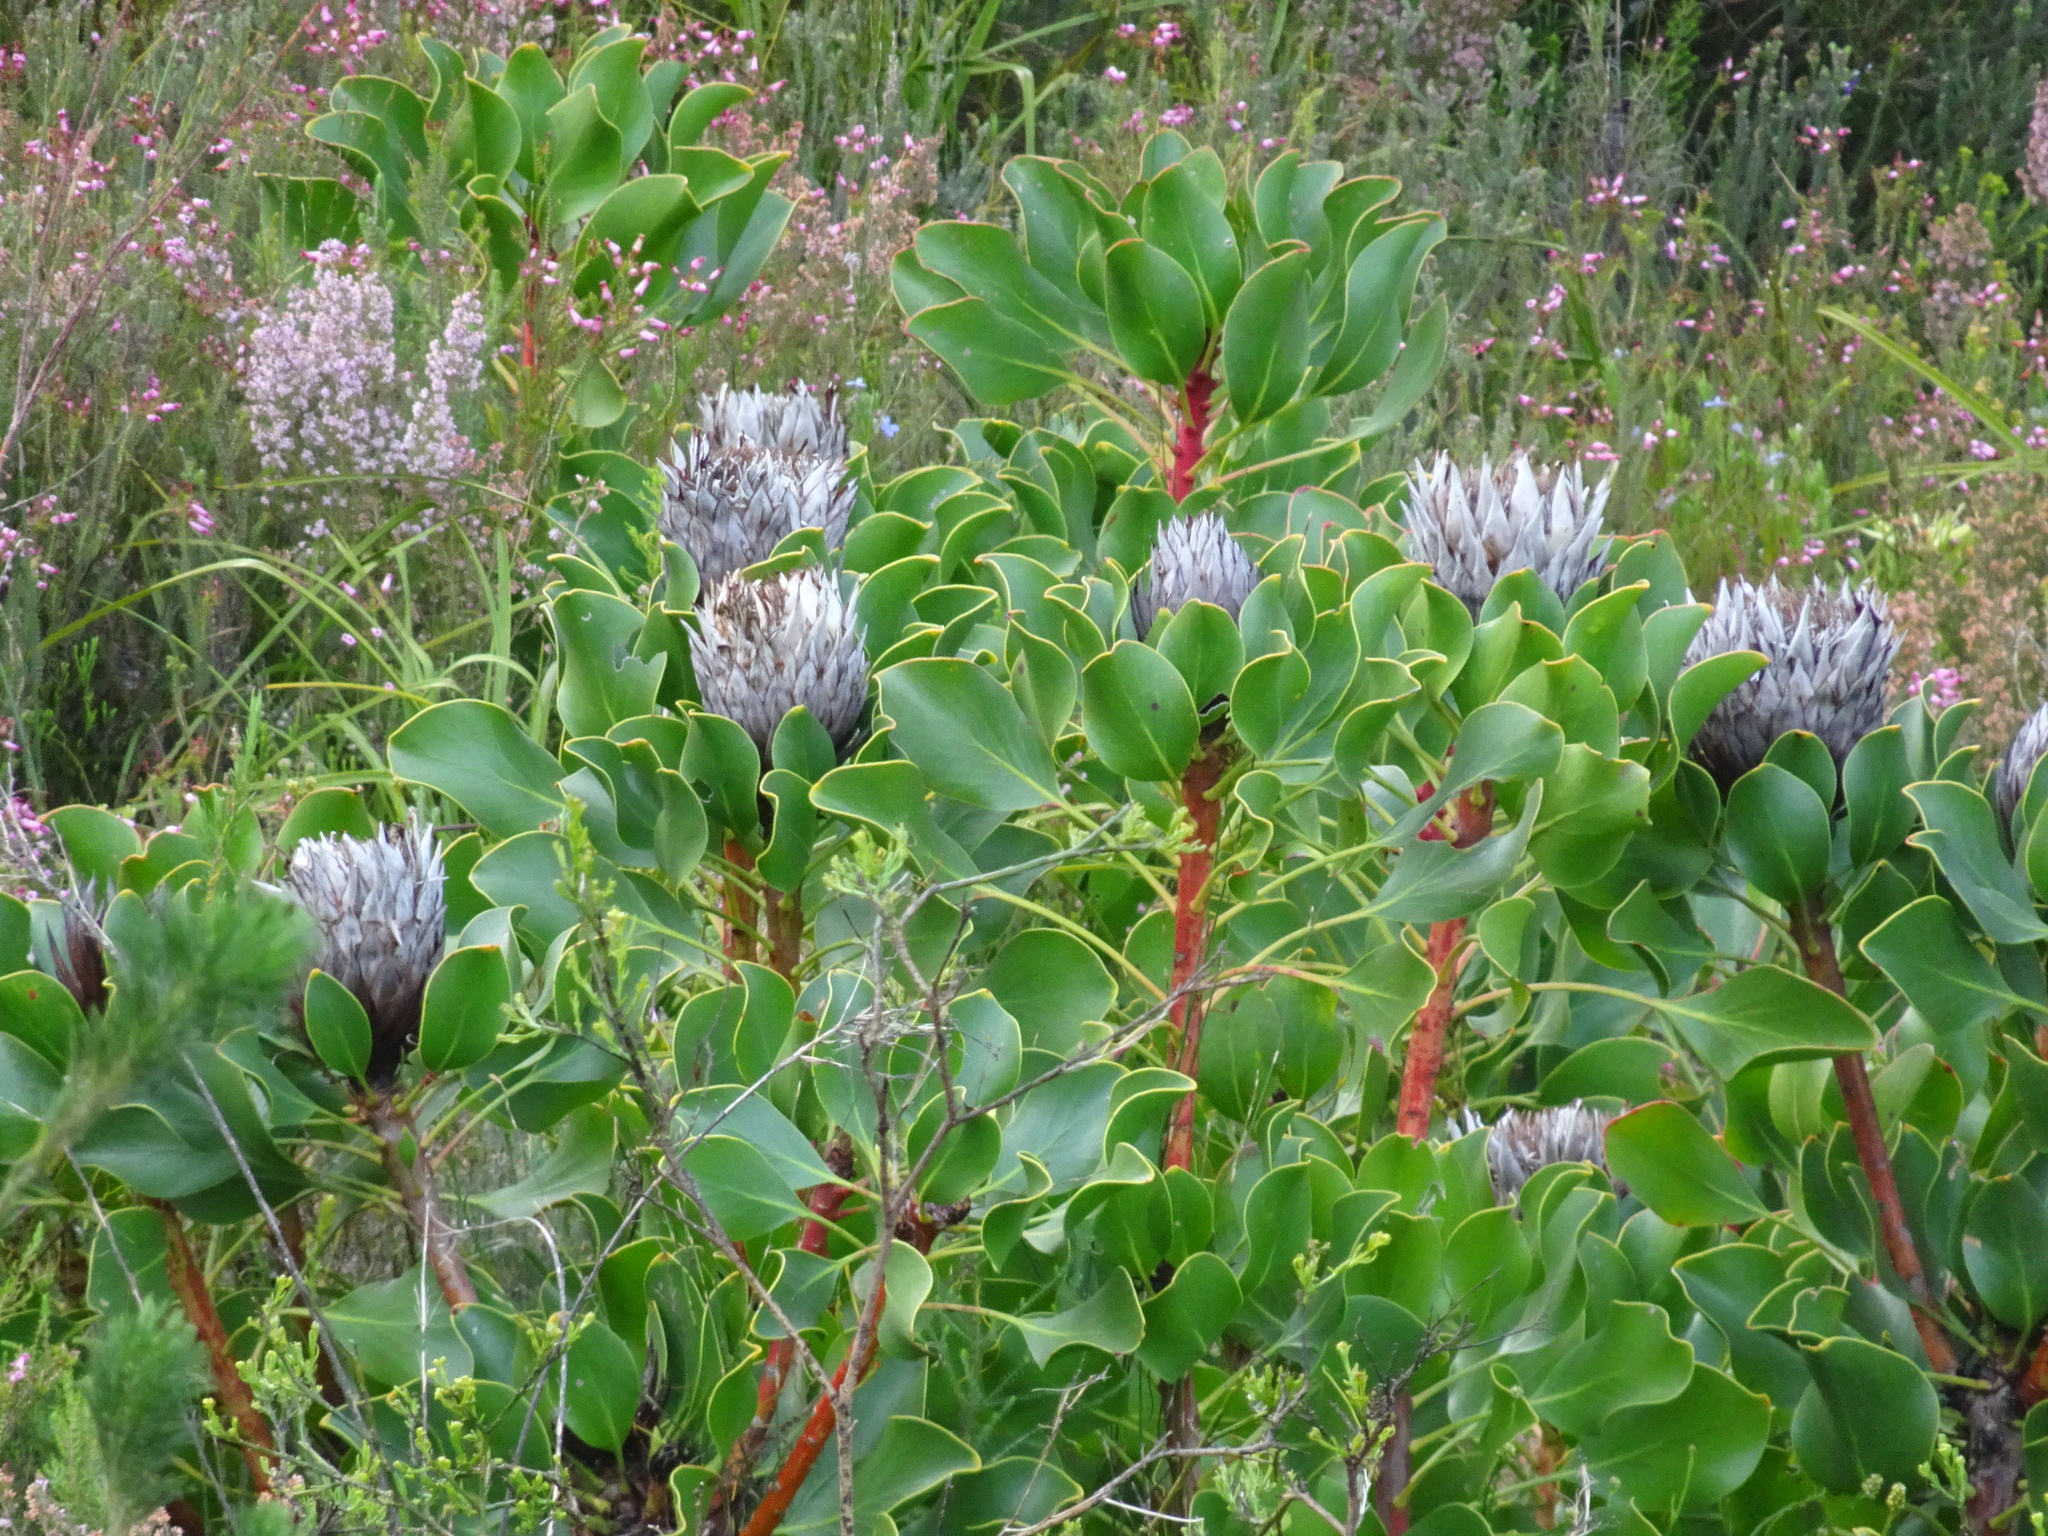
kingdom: Plantae
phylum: Tracheophyta
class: Magnoliopsida
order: Proteales
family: Proteaceae
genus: Protea
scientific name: Protea cynaroides
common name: King protea
